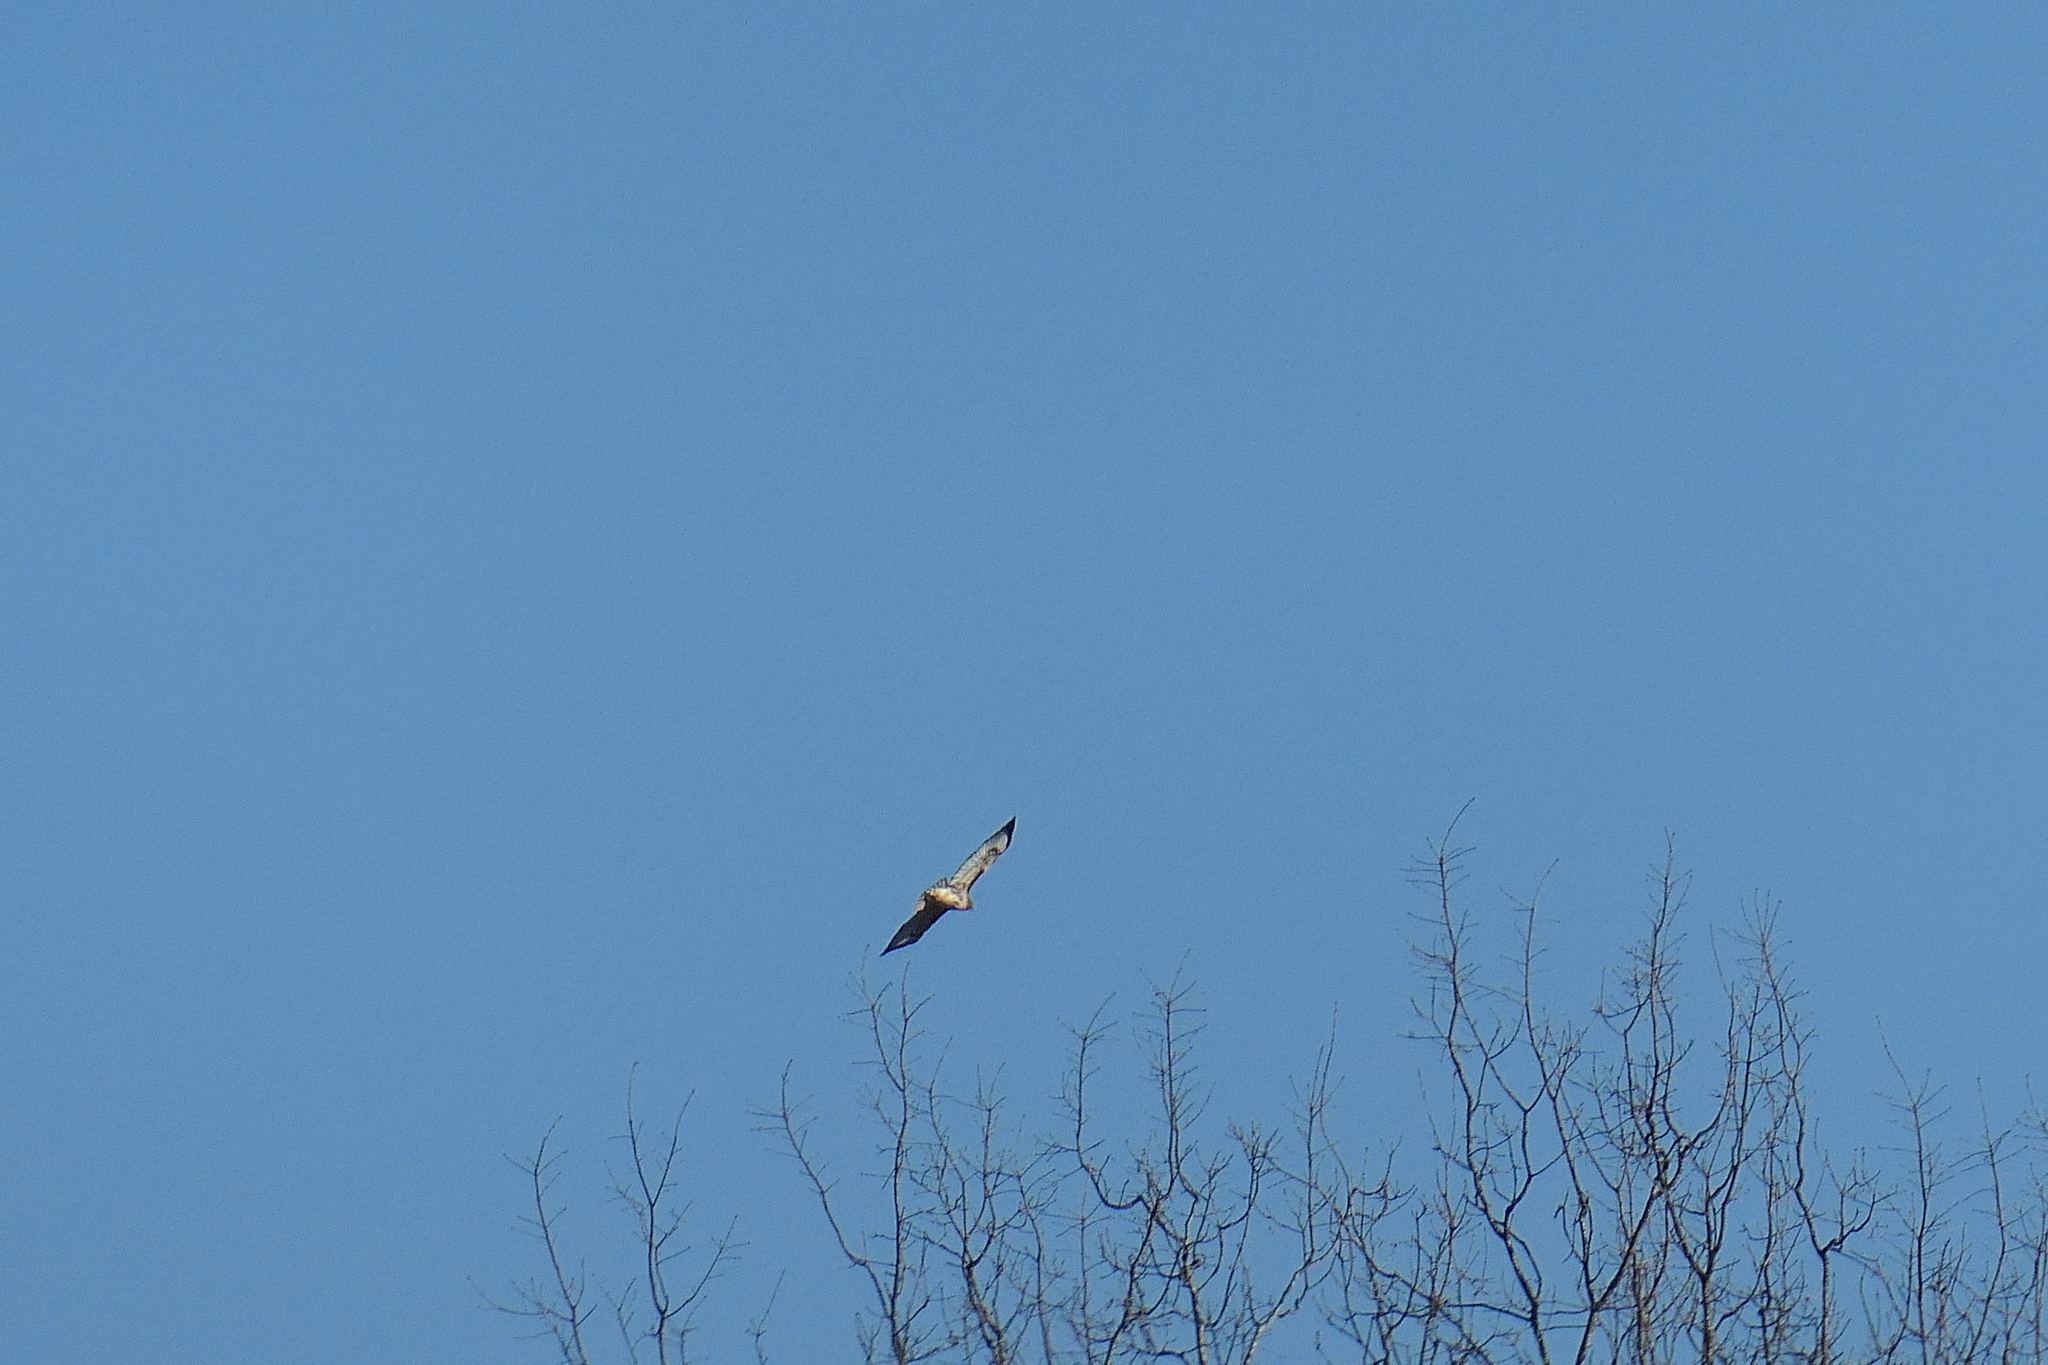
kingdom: Animalia
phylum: Chordata
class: Aves
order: Accipitriformes
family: Accipitridae
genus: Buteo
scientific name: Buteo jamaicensis
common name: Red-tailed hawk
